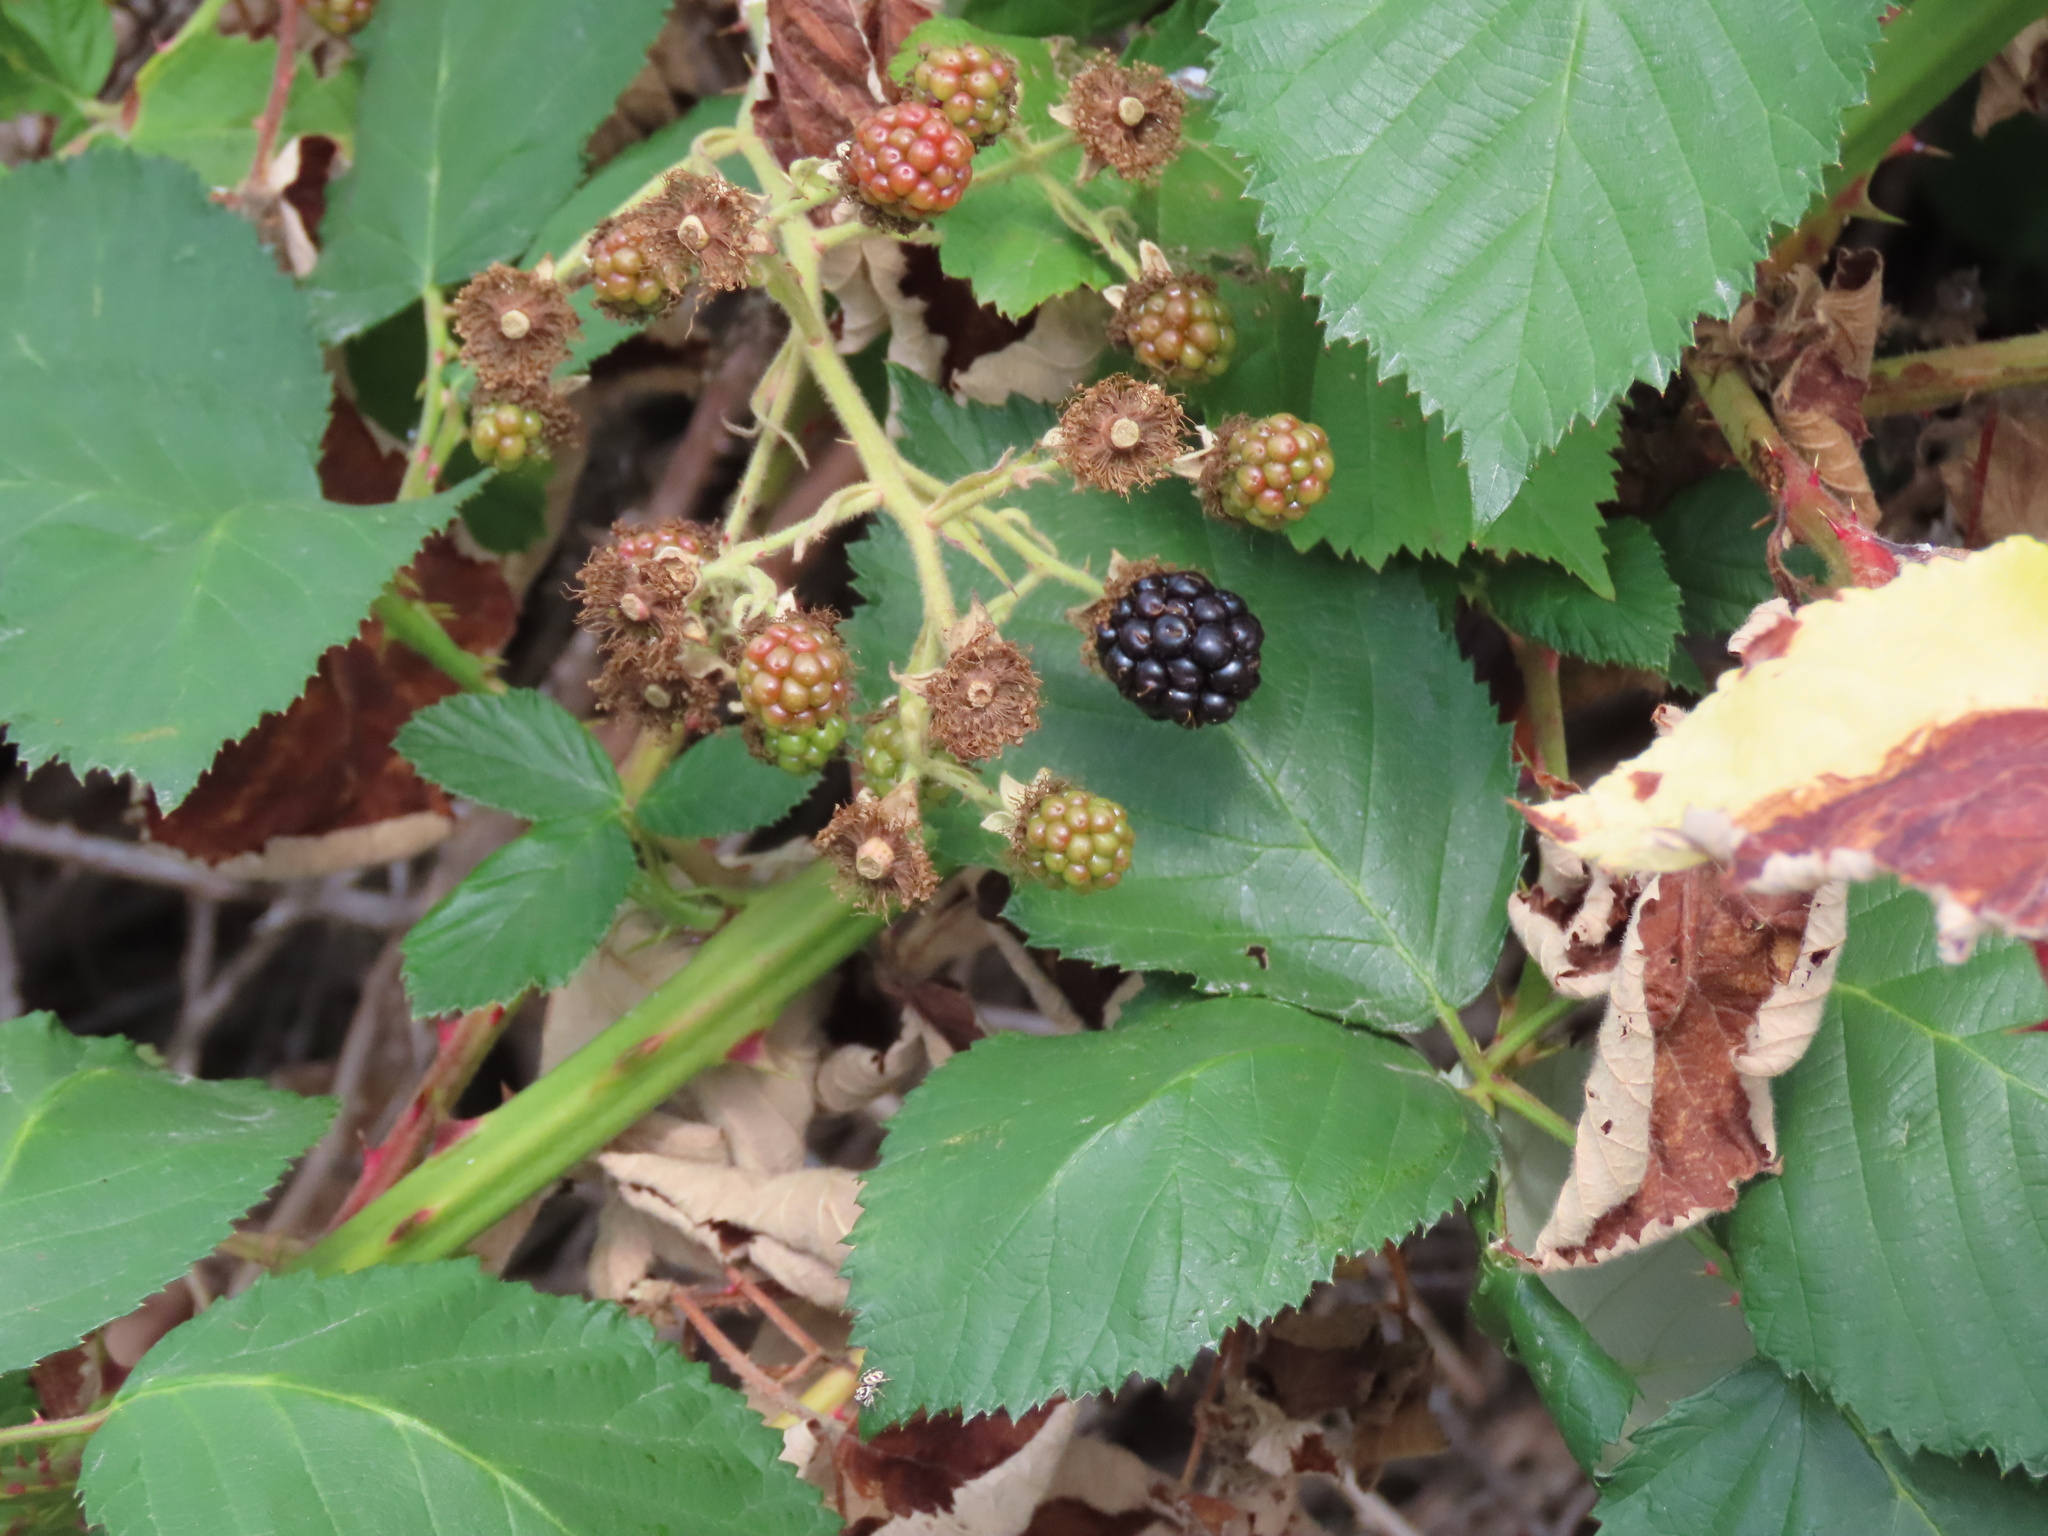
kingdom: Plantae
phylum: Tracheophyta
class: Magnoliopsida
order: Rosales
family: Rosaceae
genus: Rubus
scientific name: Rubus bifrons
